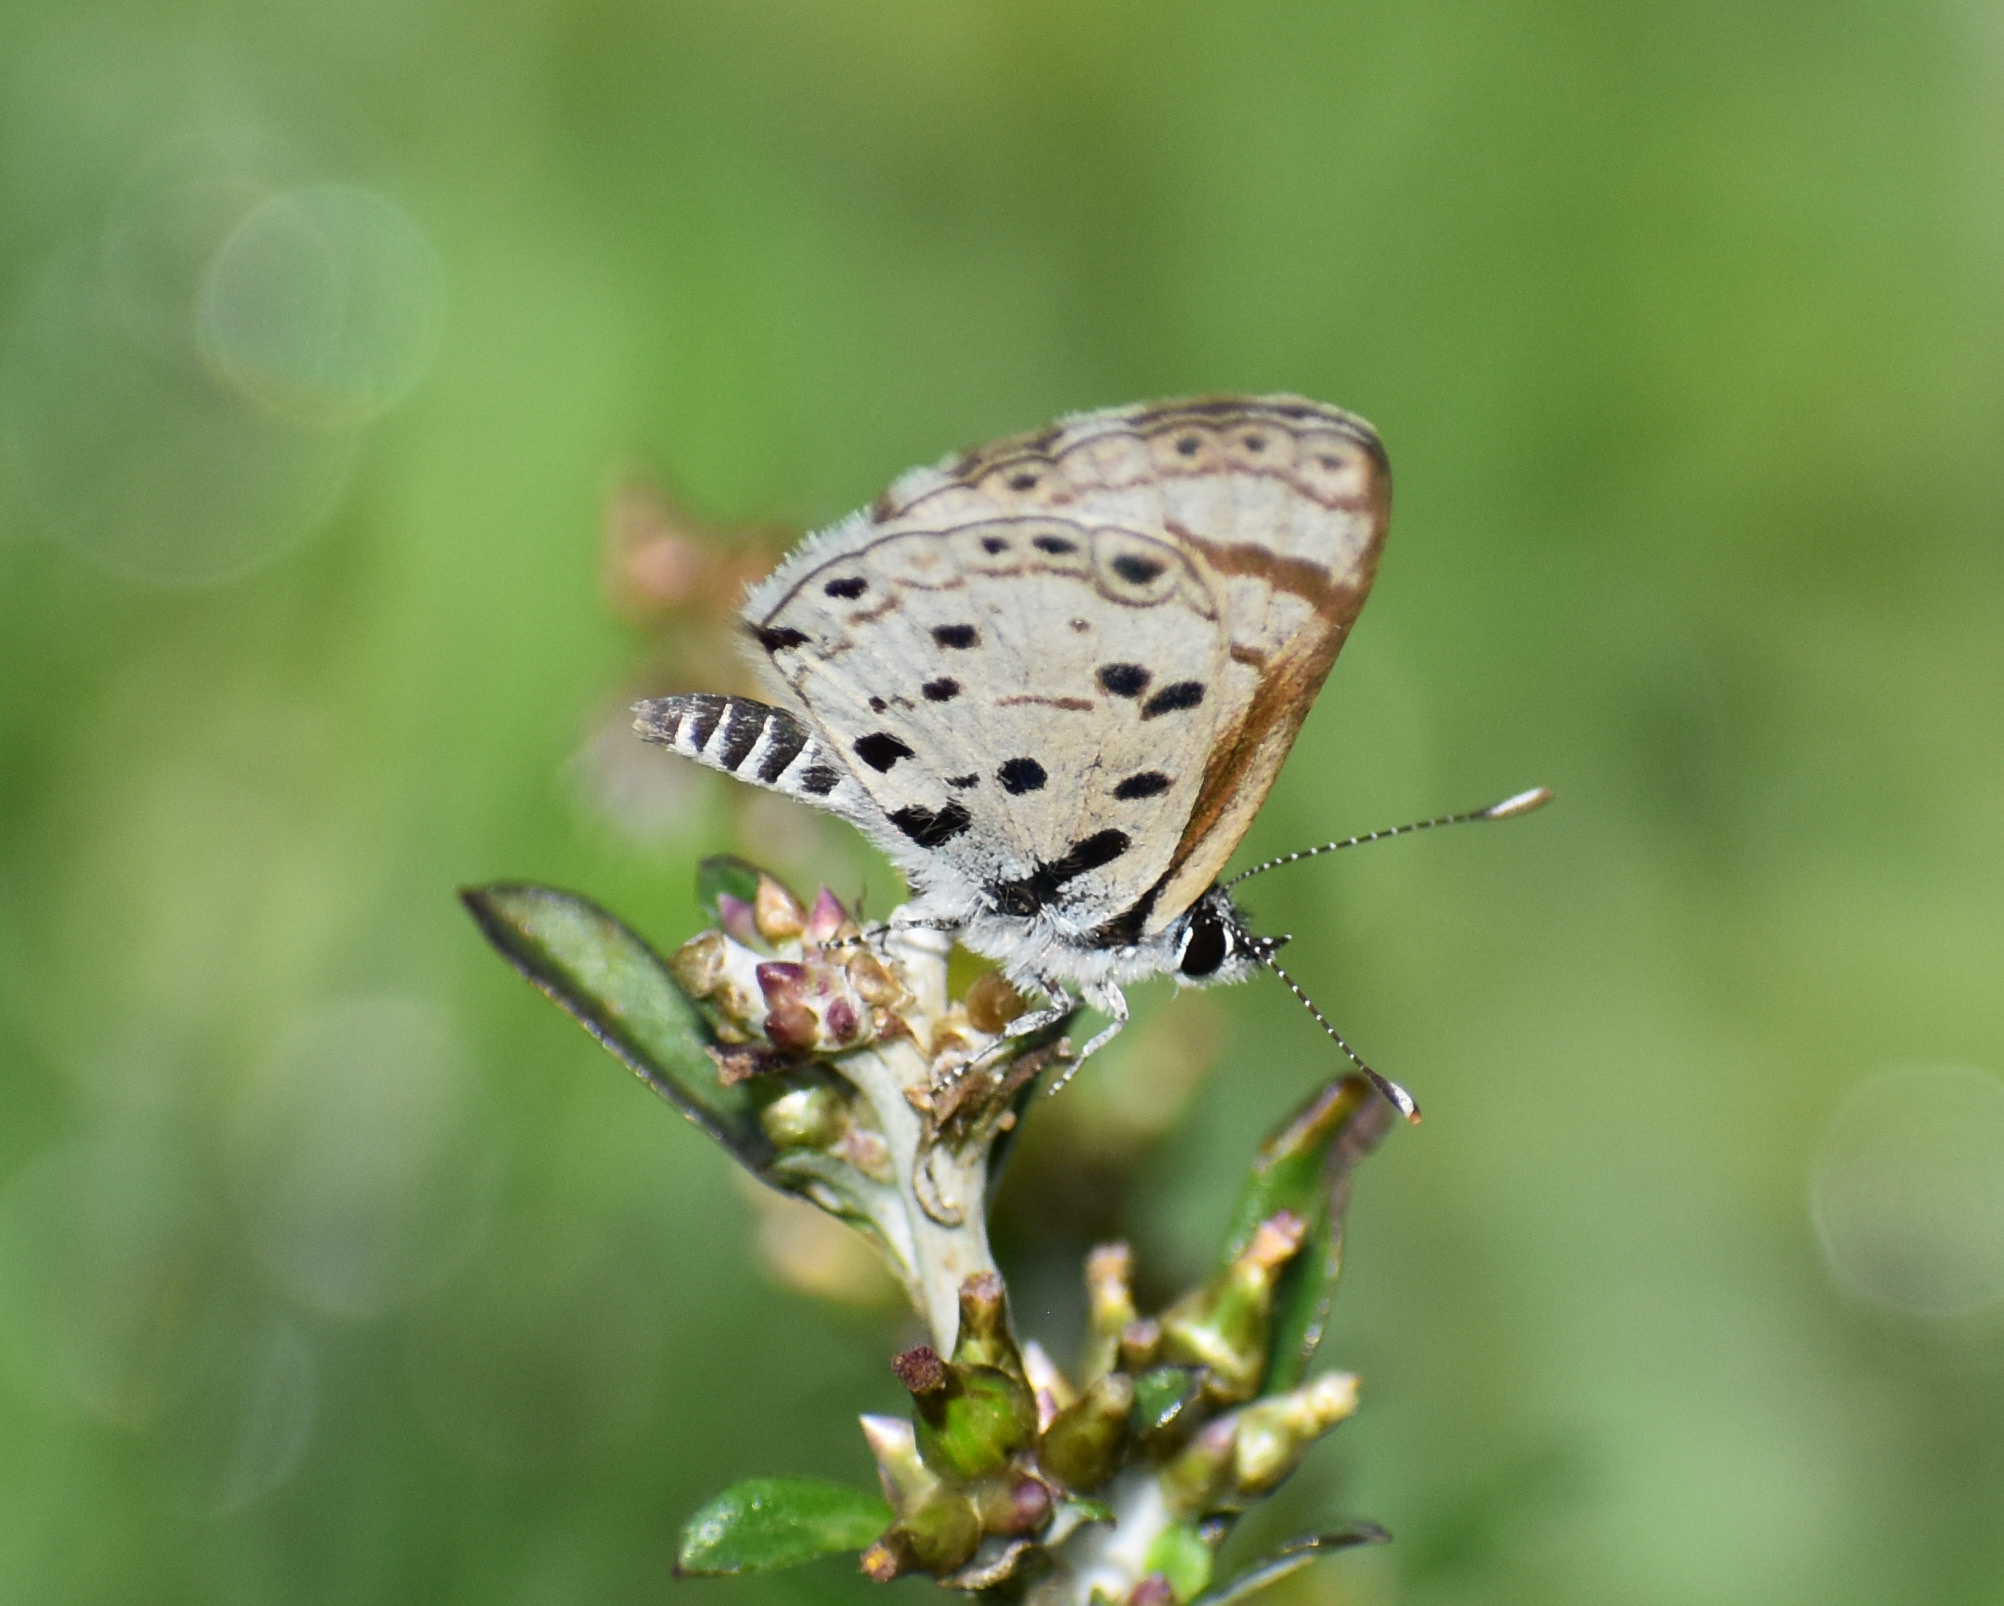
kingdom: Animalia
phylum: Arthropoda
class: Insecta
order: Lepidoptera
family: Lycaenidae
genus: Azanus
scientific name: Azanus natalensis
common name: Natal babul blue
